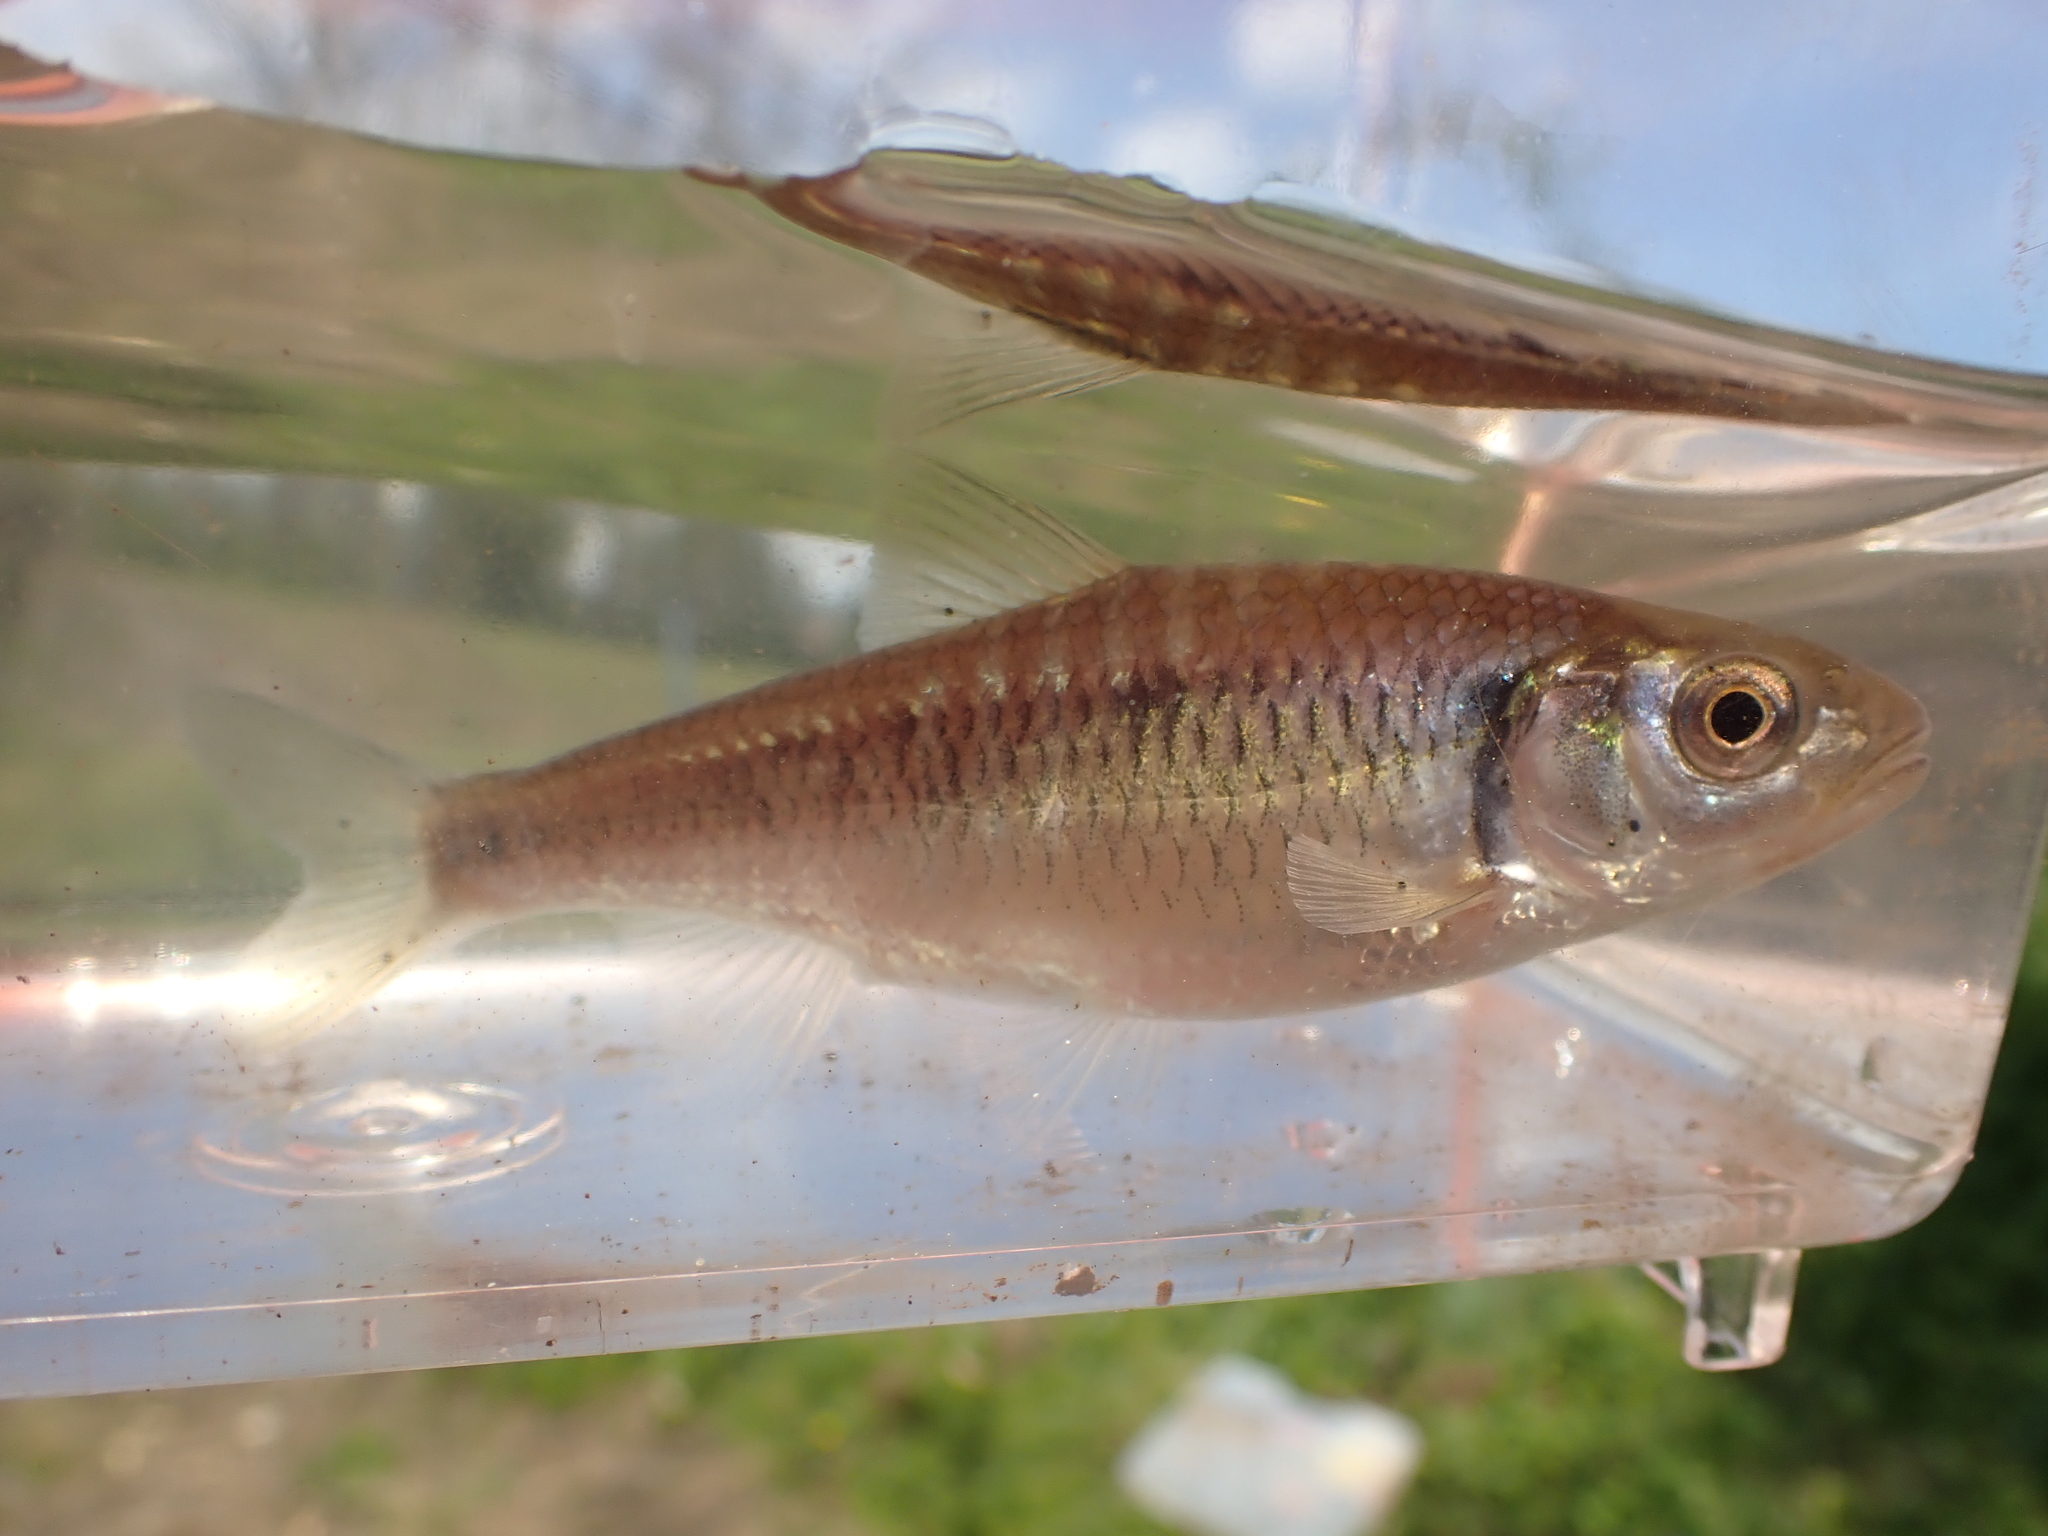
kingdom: Animalia
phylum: Chordata
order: Cypriniformes
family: Cyprinidae
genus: Luxilus
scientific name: Luxilus chrysocephalus
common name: Striped shiner
